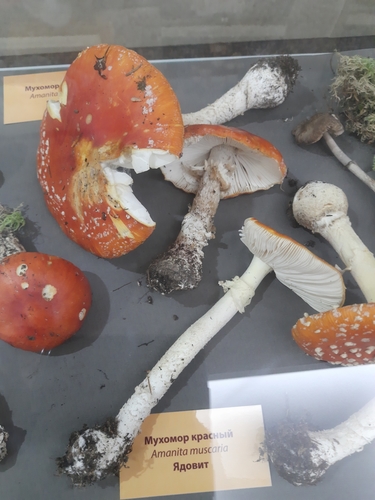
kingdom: Fungi
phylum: Basidiomycota
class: Agaricomycetes
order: Agaricales
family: Amanitaceae
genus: Amanita
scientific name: Amanita muscaria
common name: Fly agaric
